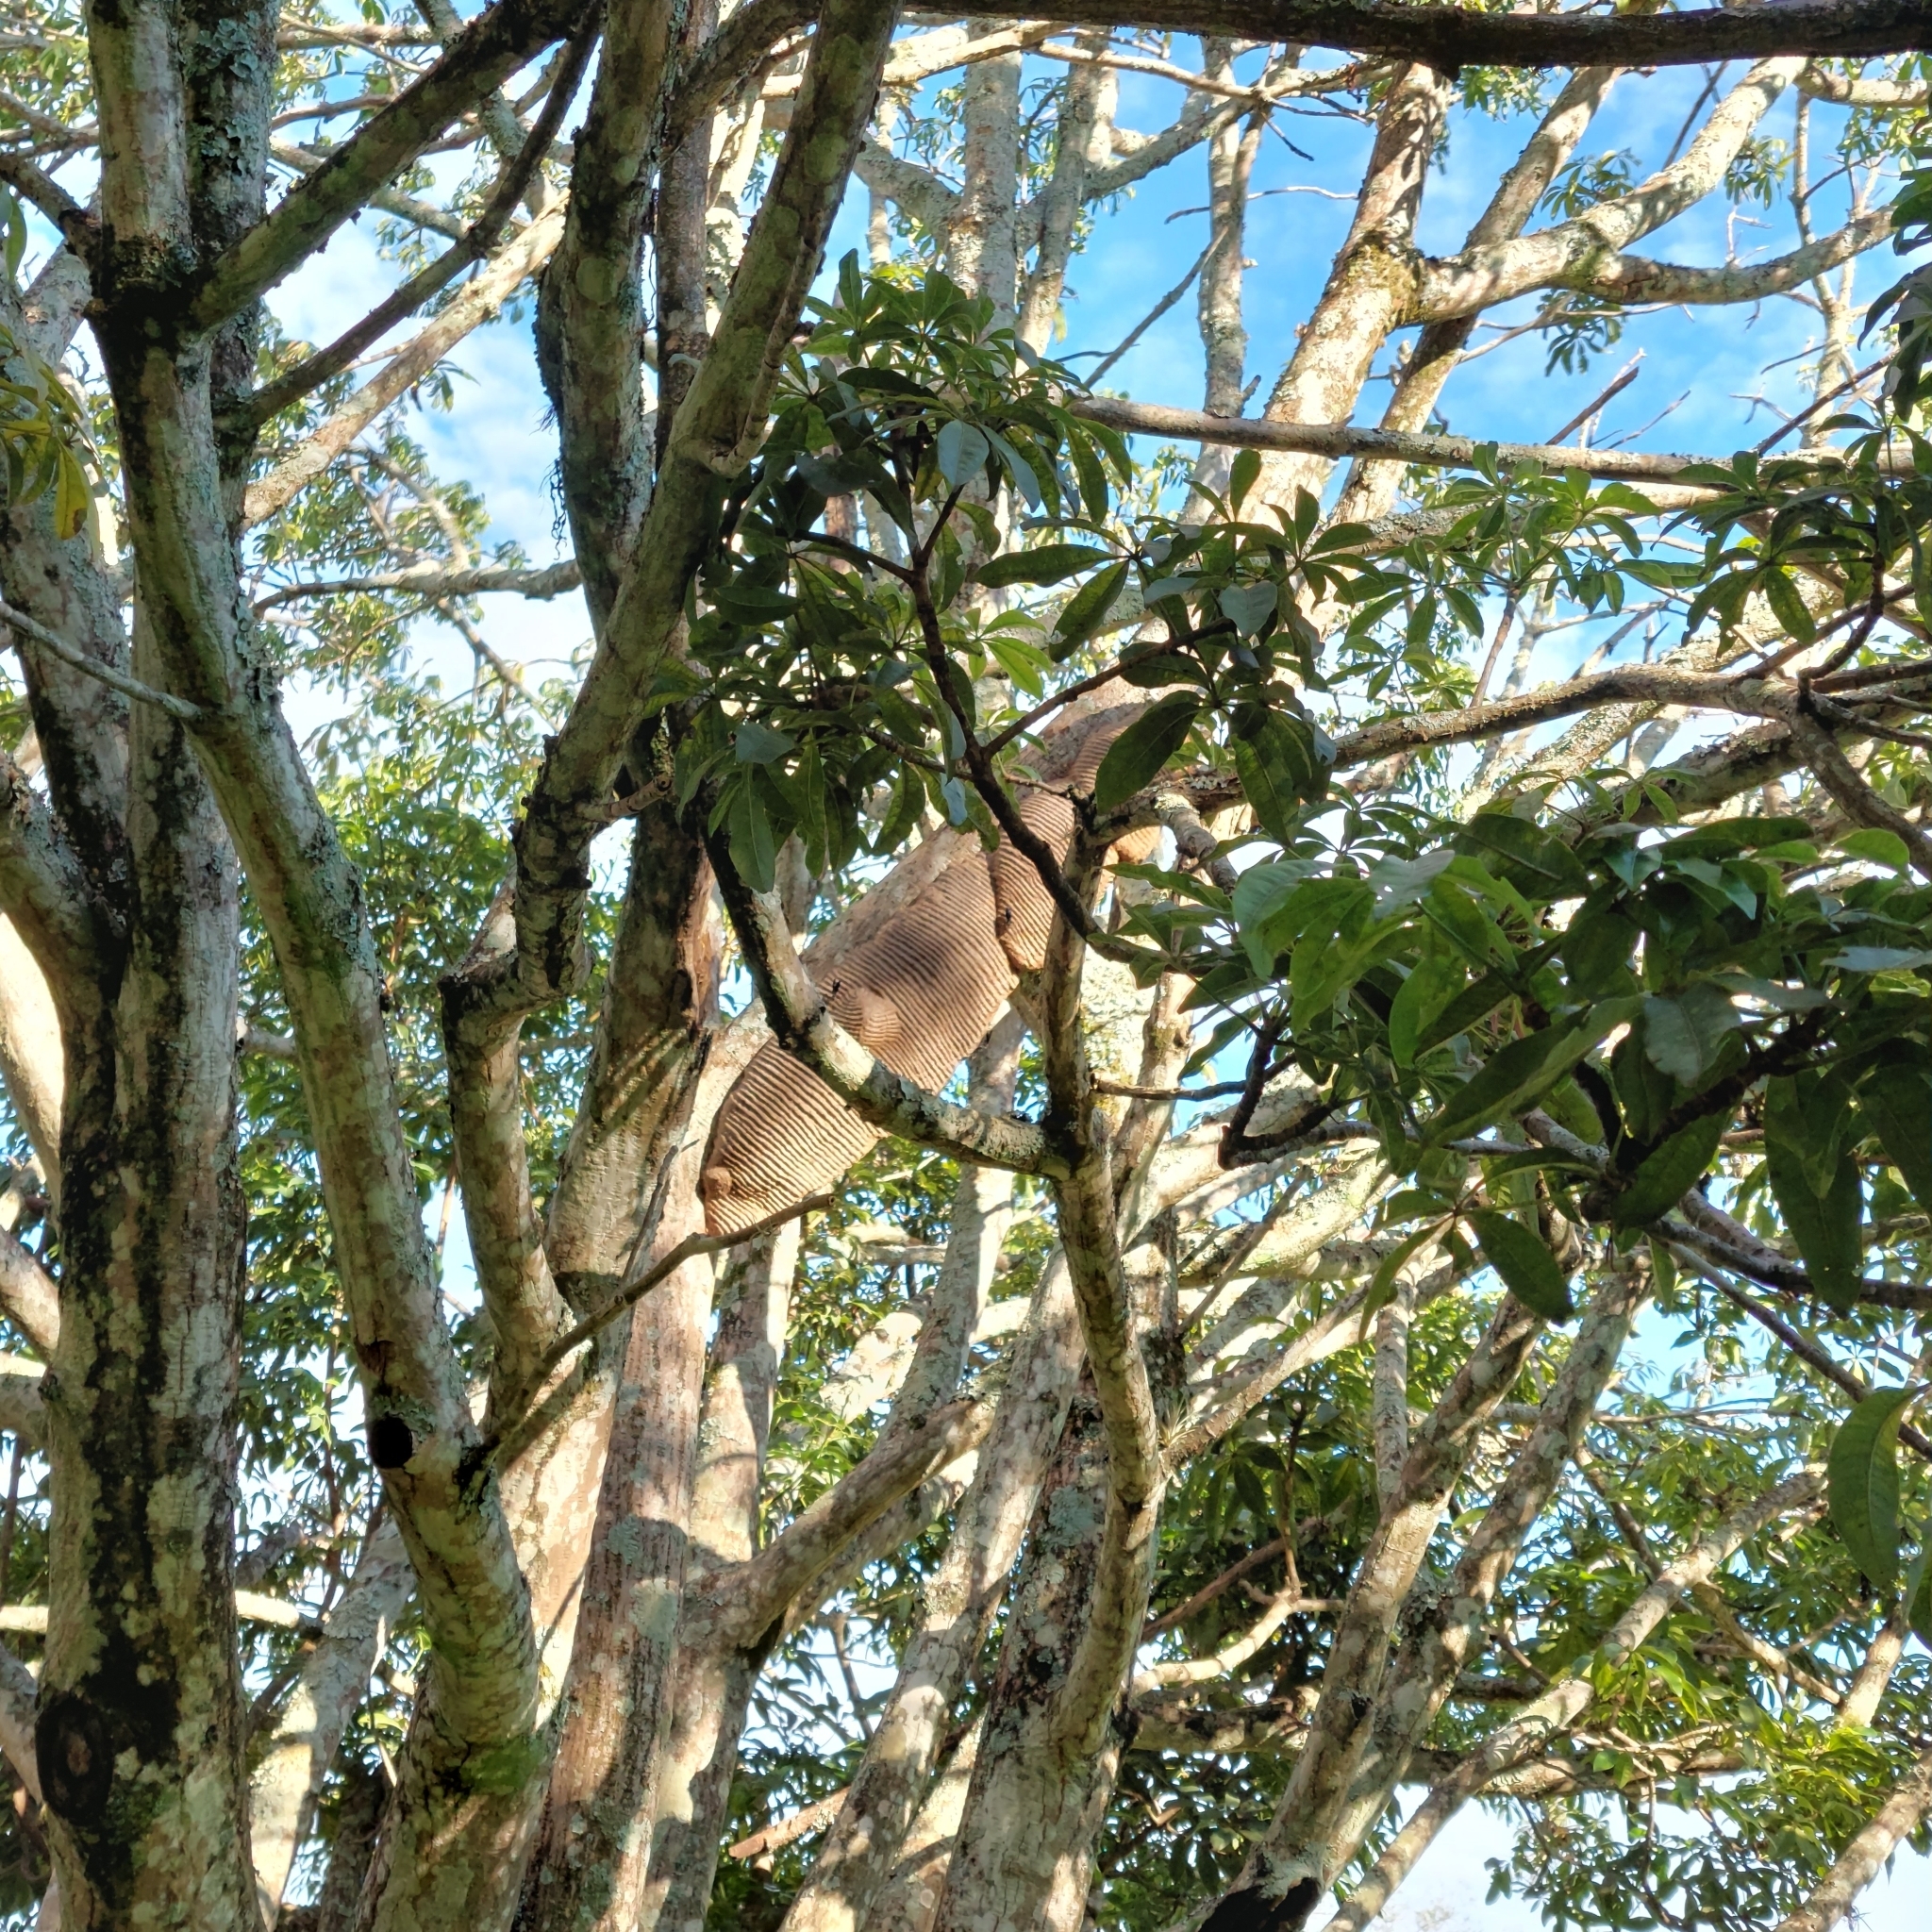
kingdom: Animalia
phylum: Arthropoda
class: Insecta
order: Hymenoptera
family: Vespidae
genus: Synoeca
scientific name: Synoeca cyanea
